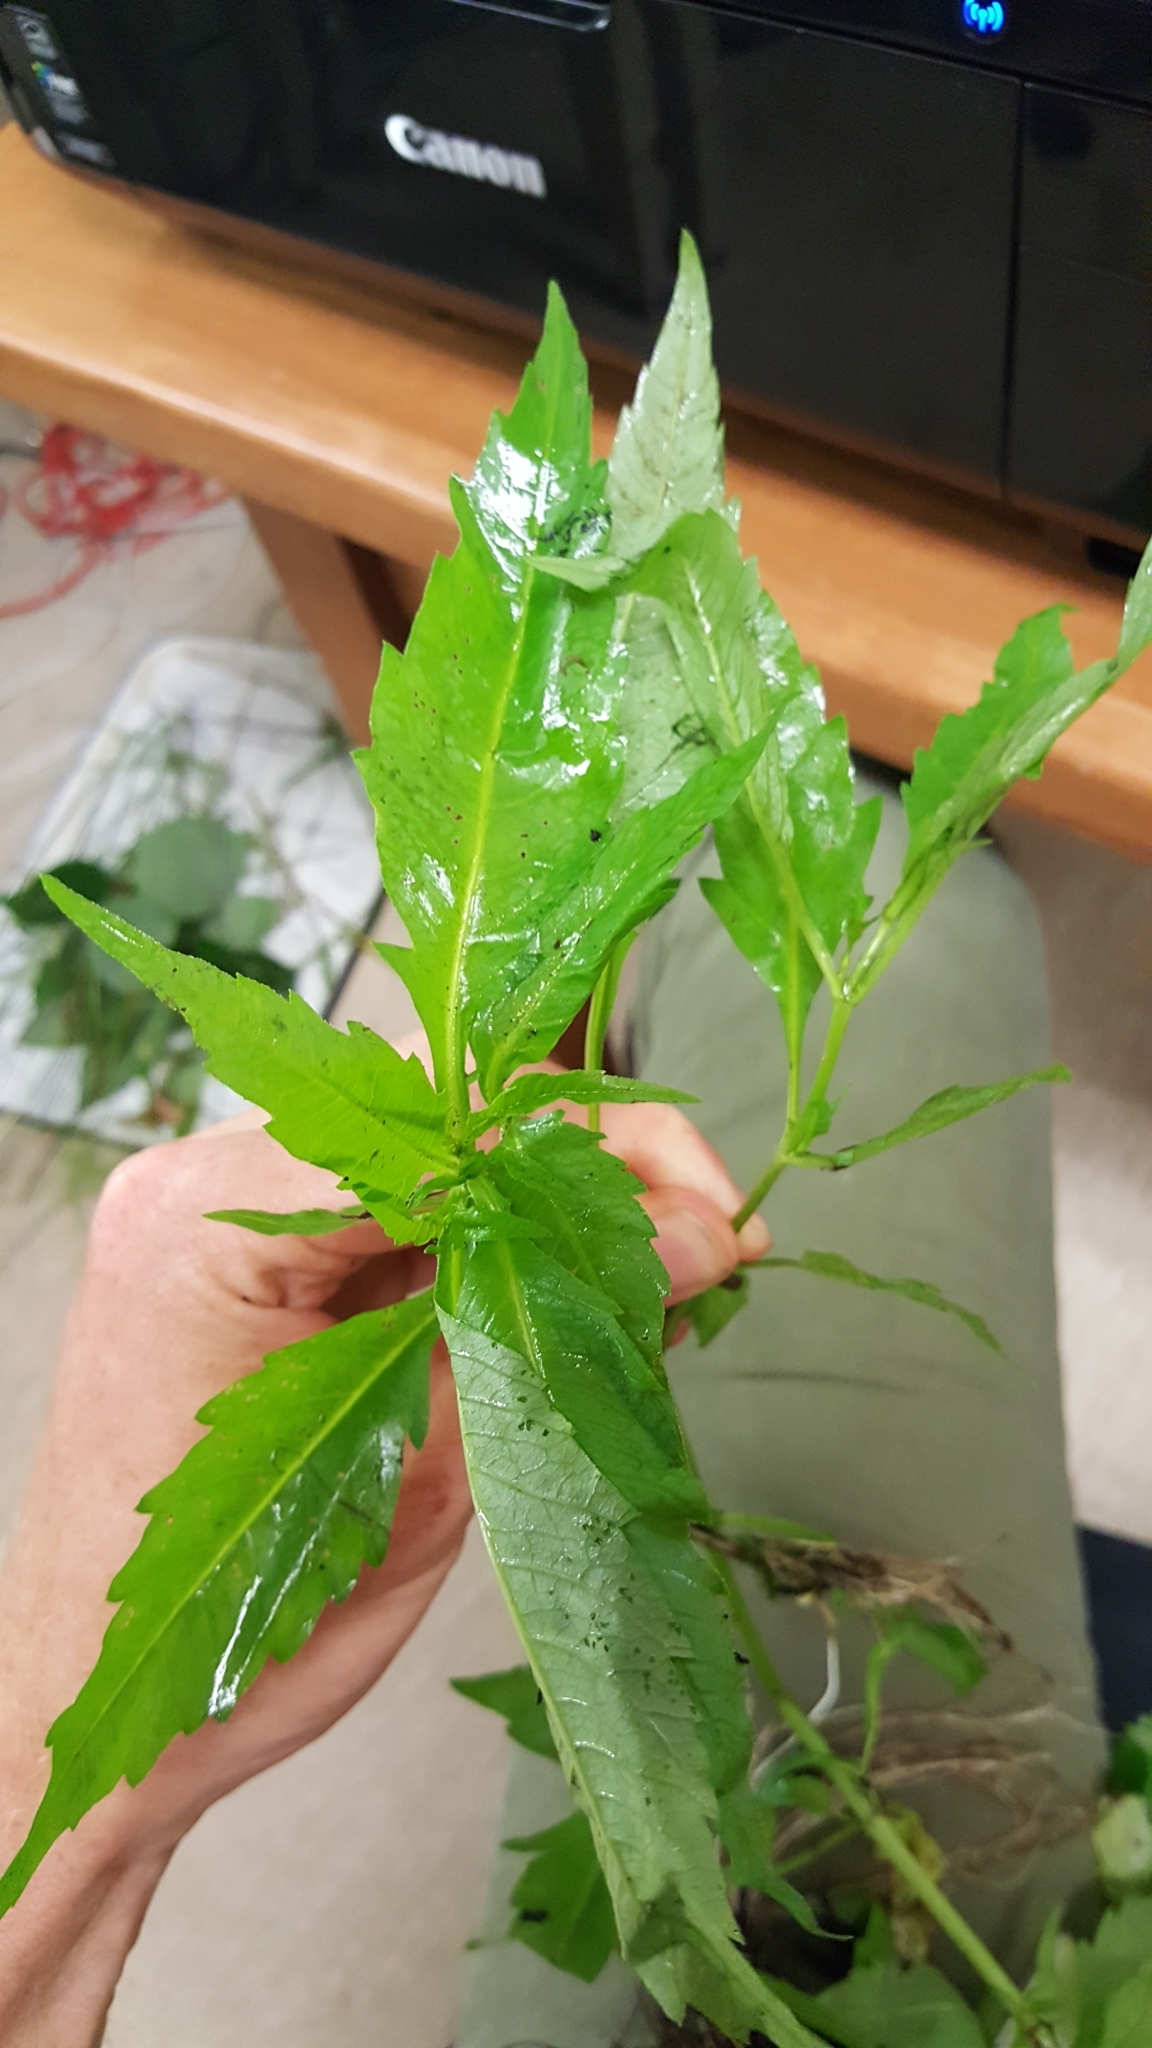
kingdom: Plantae
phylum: Tracheophyta
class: Magnoliopsida
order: Asterales
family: Asteraceae
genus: Bidens
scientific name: Bidens connata
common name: London bur-marigold
